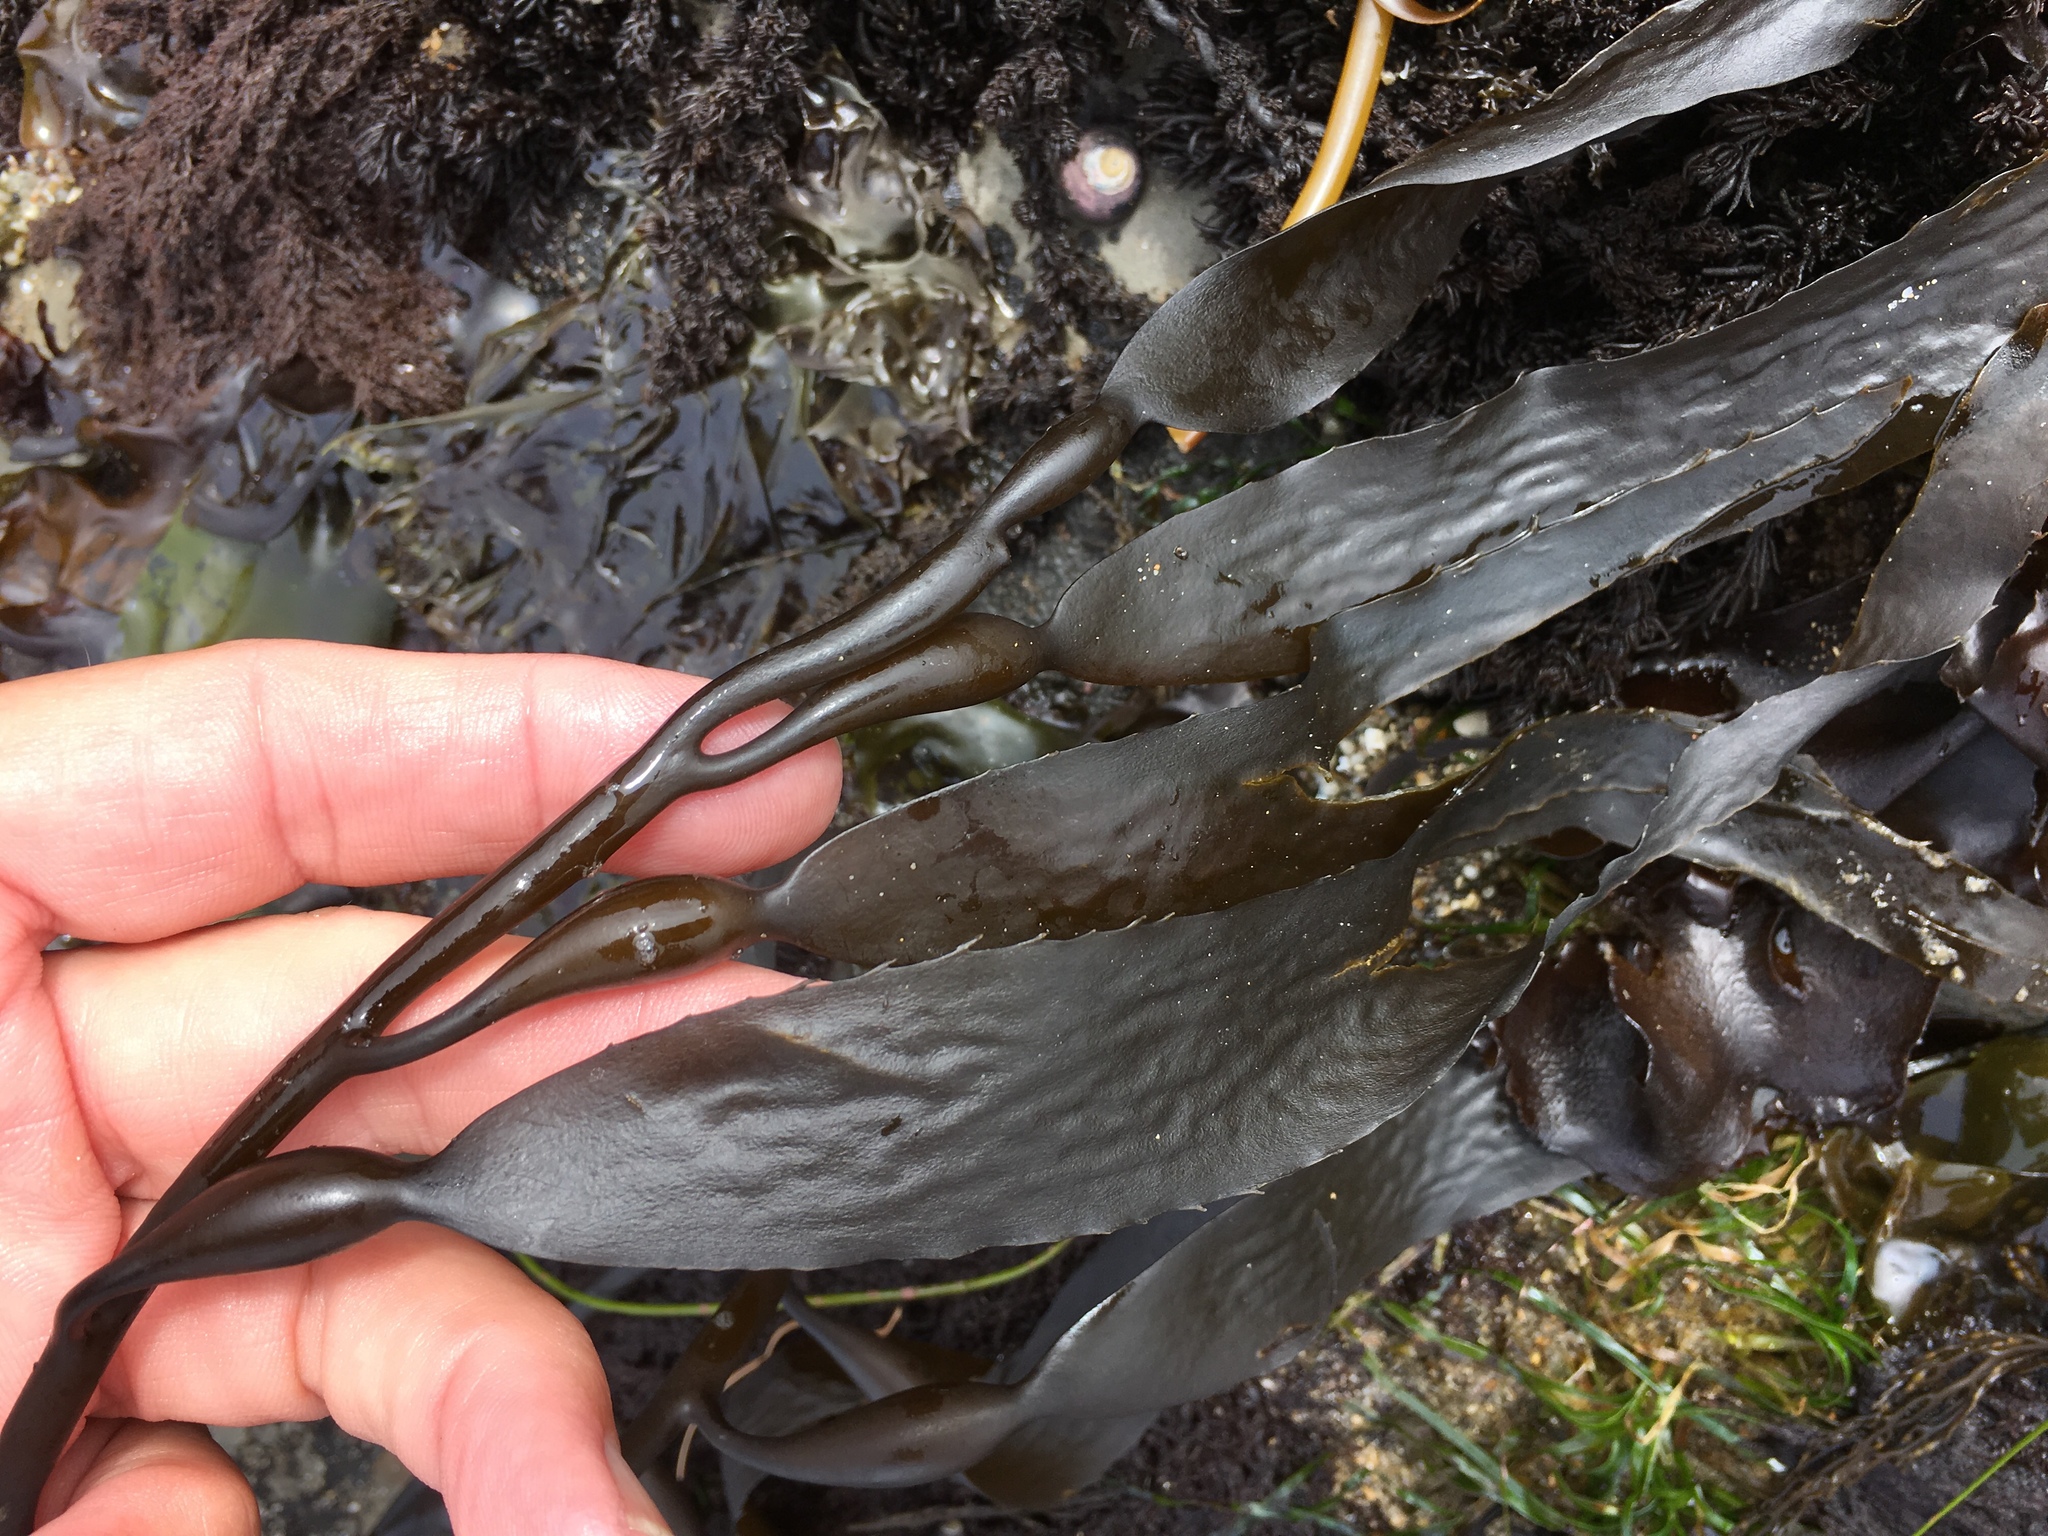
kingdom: Chromista
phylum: Ochrophyta
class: Phaeophyceae
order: Laminariales
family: Laminariaceae
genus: Macrocystis
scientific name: Macrocystis pyrifera
